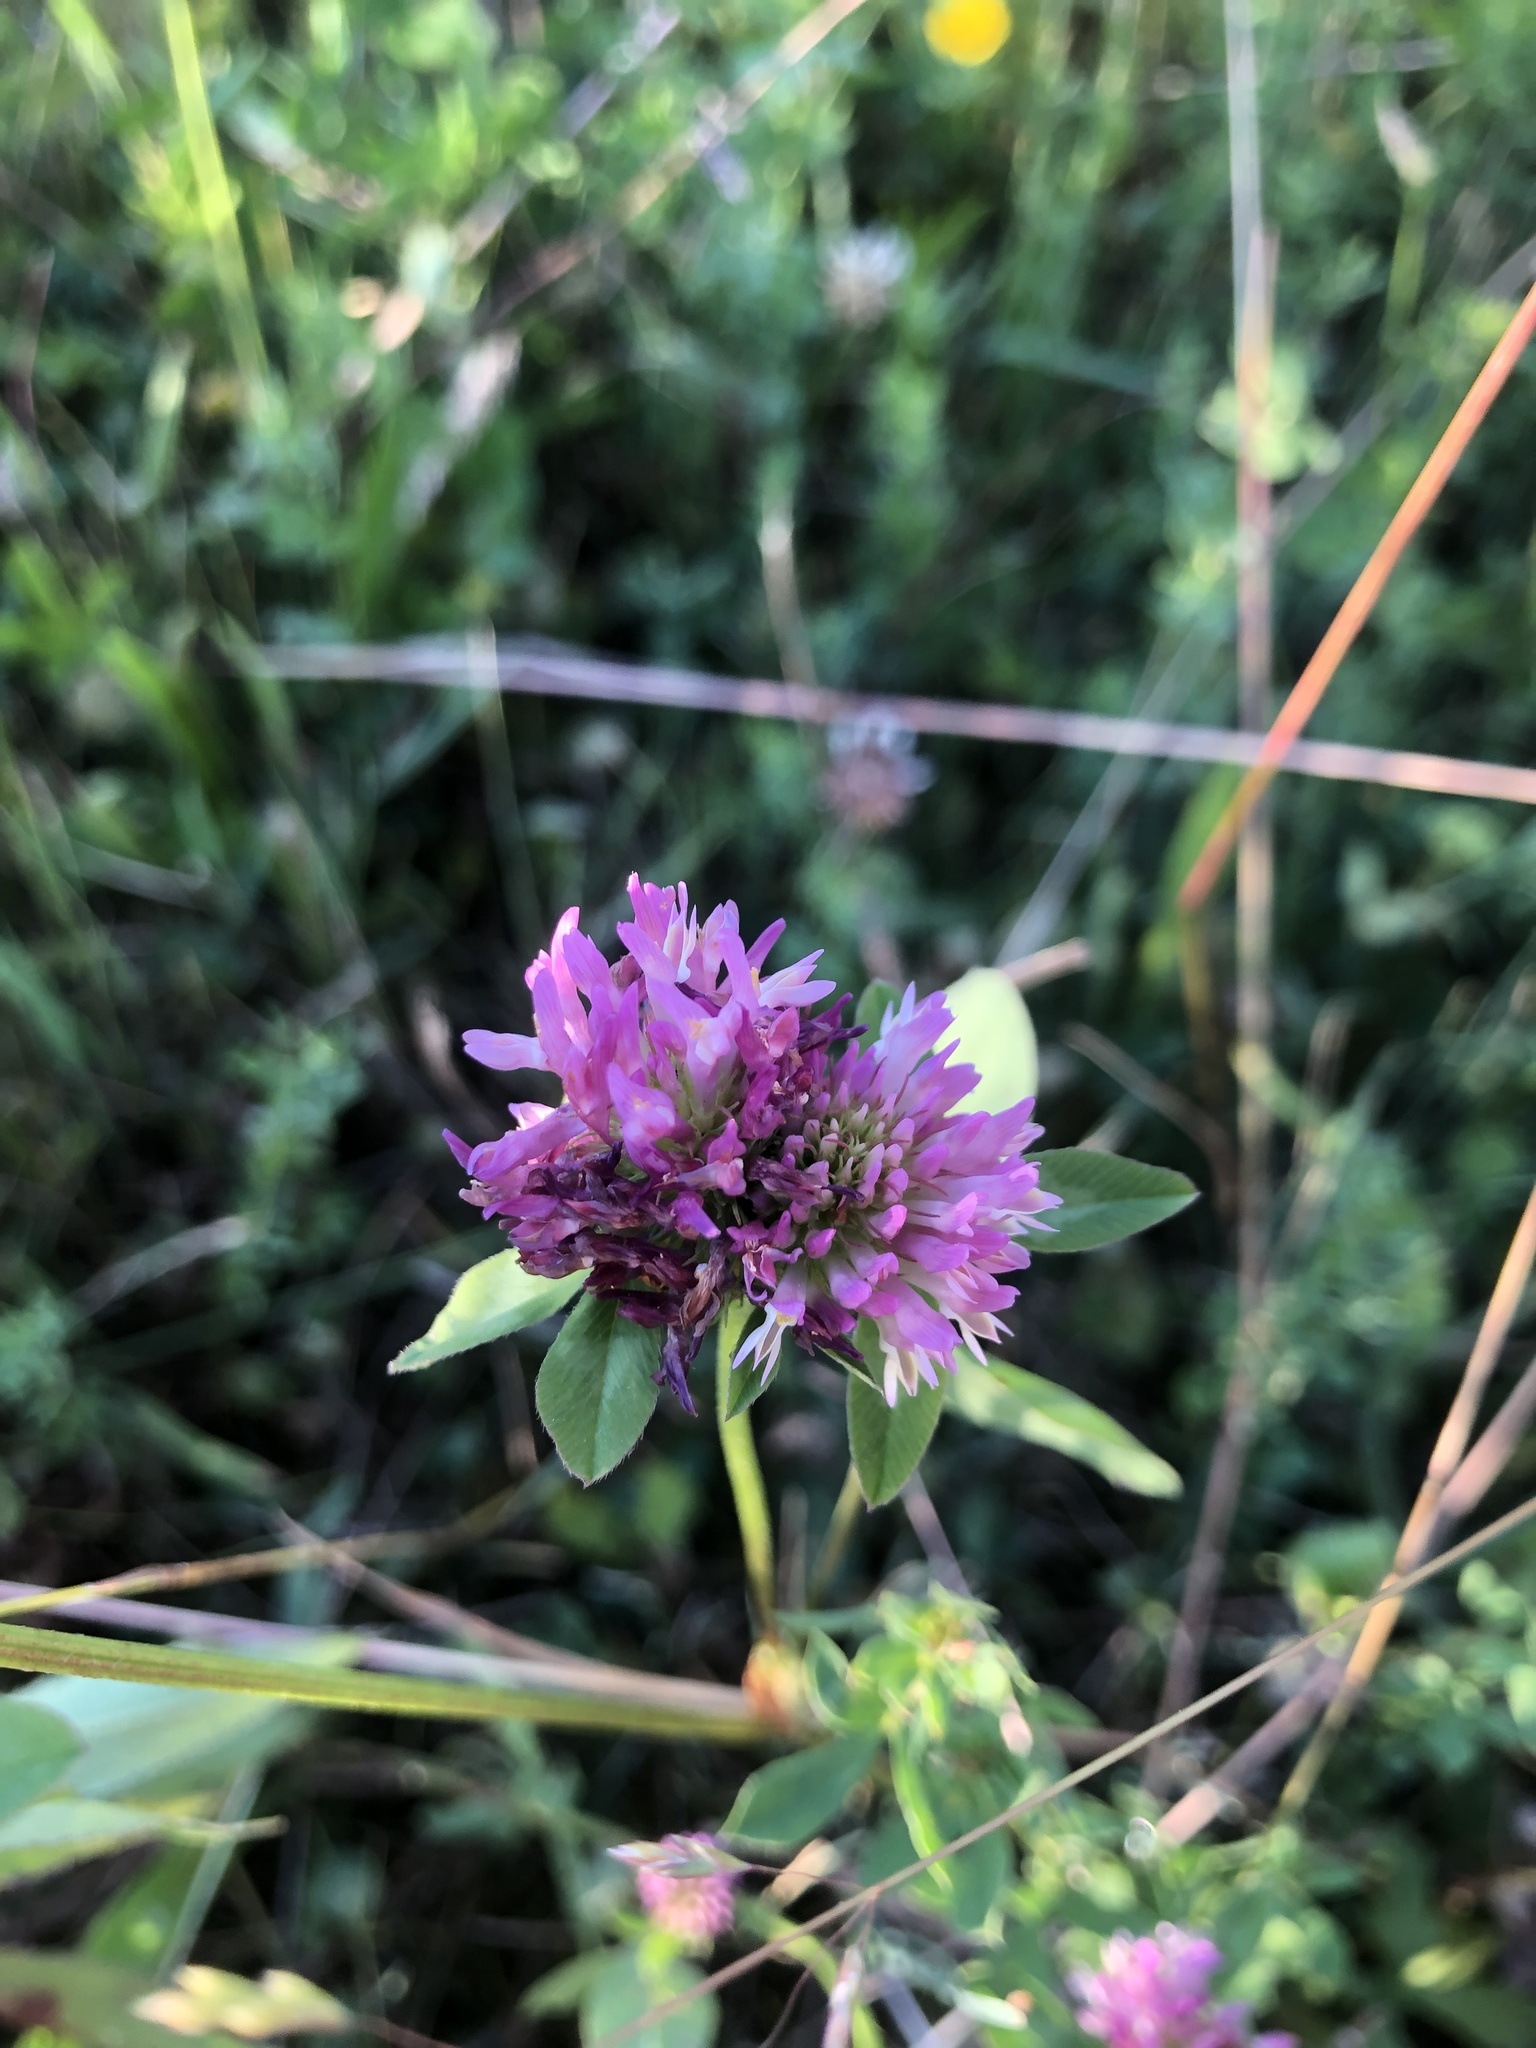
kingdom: Plantae
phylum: Tracheophyta
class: Magnoliopsida
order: Fabales
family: Fabaceae
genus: Trifolium
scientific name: Trifolium pratense
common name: Red clover
